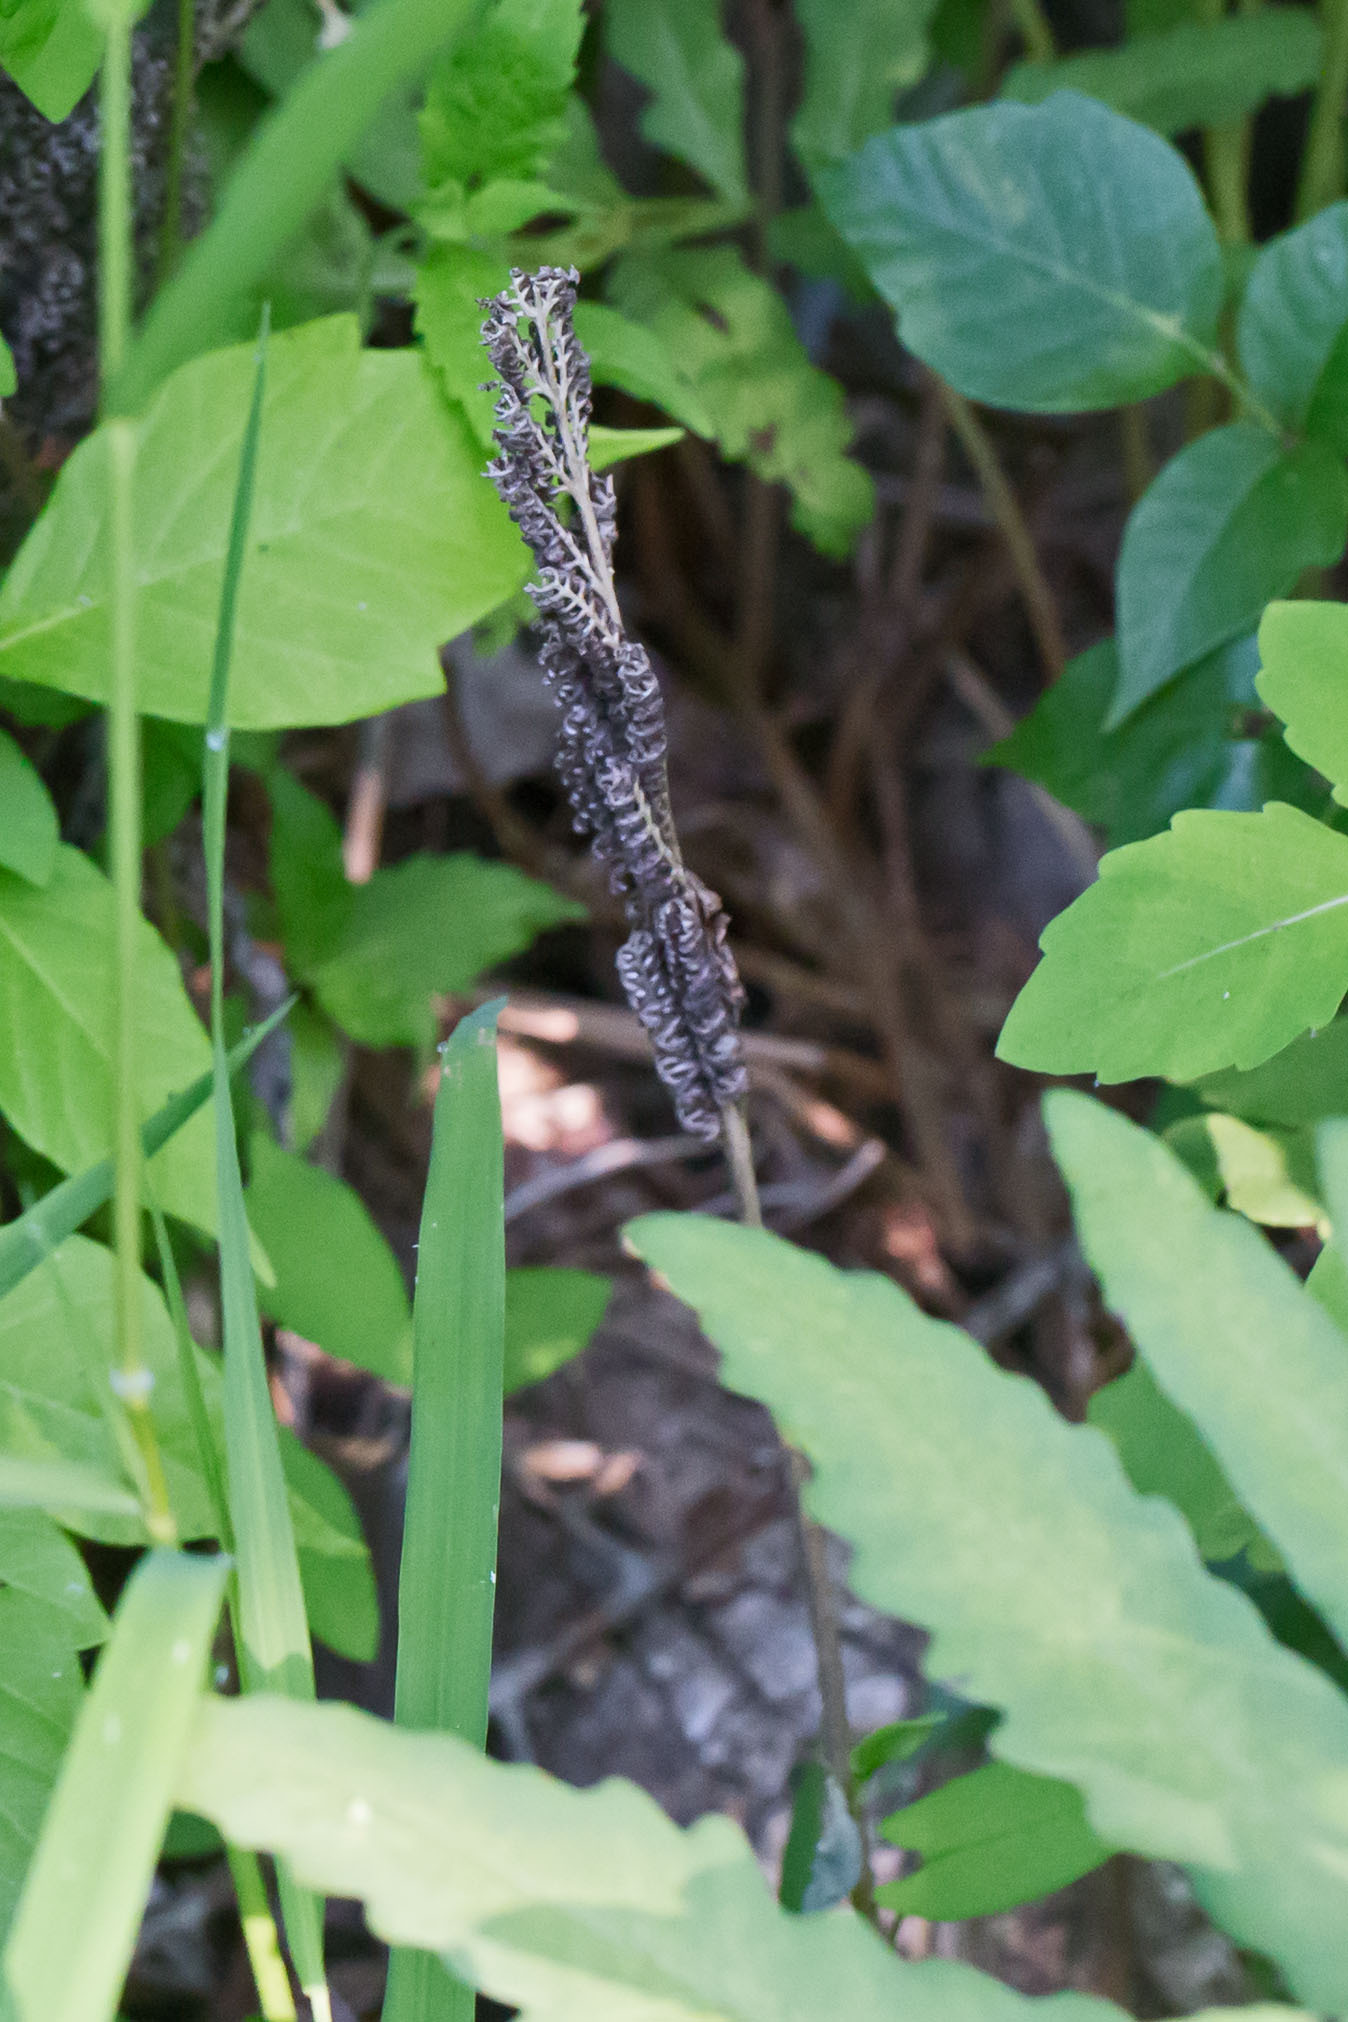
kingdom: Plantae
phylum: Tracheophyta
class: Polypodiopsida
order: Polypodiales
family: Onocleaceae
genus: Onoclea
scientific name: Onoclea sensibilis
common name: Sensitive fern
